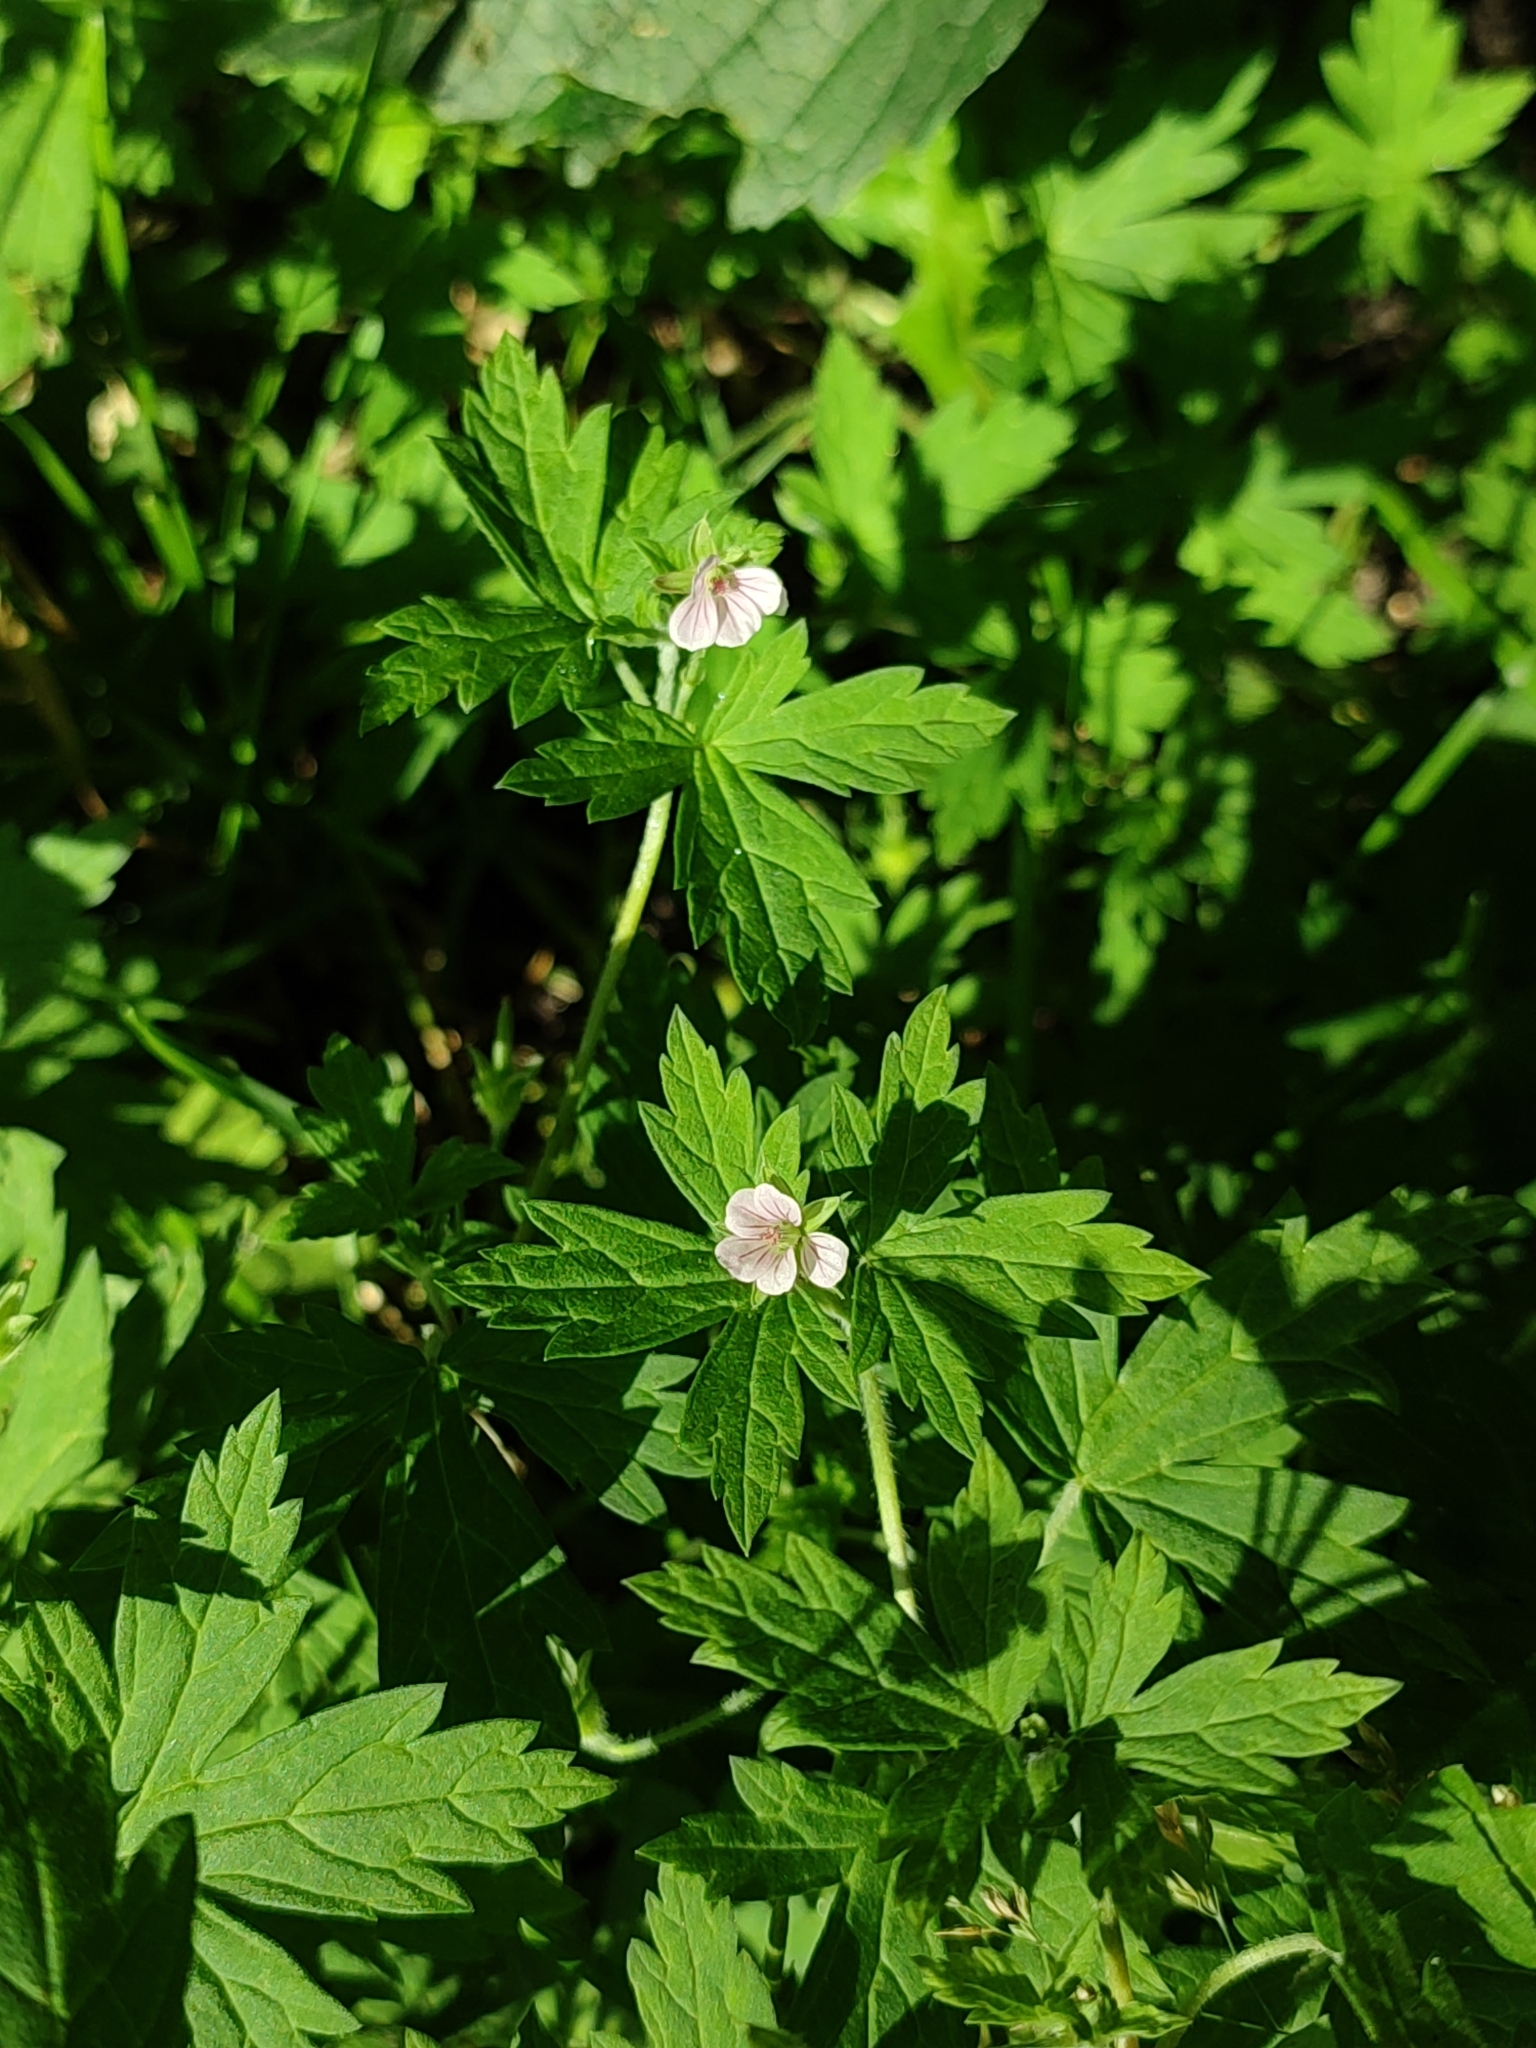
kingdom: Plantae
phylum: Tracheophyta
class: Magnoliopsida
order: Geraniales
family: Geraniaceae
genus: Geranium
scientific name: Geranium sibiricum
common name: Siberian crane's-bill
